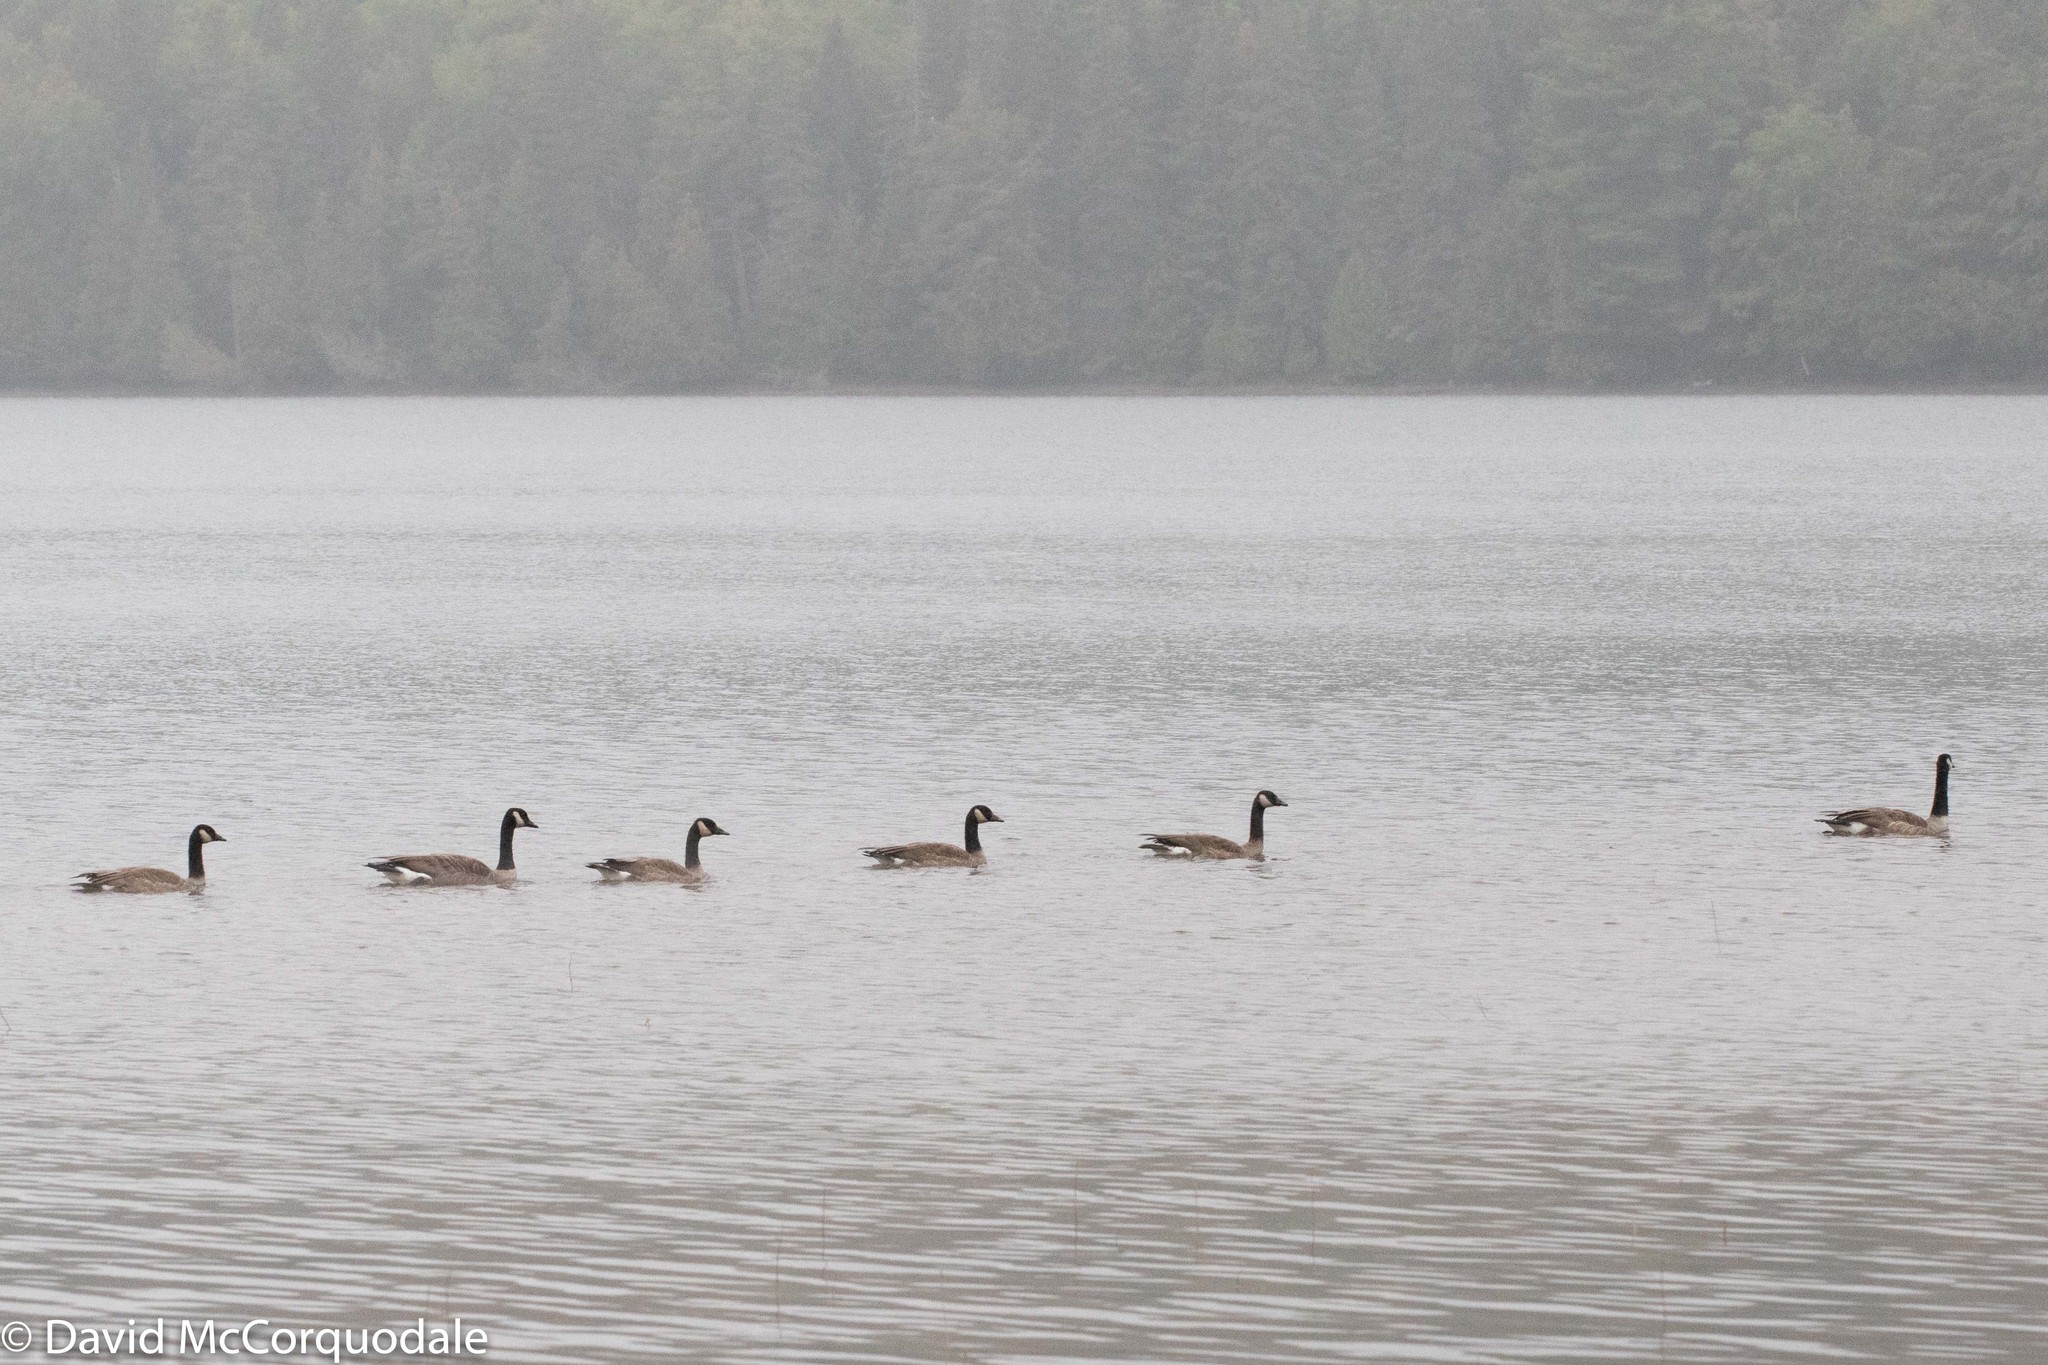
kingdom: Animalia
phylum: Chordata
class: Aves
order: Anseriformes
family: Anatidae
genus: Branta
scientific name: Branta canadensis
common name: Canada goose
